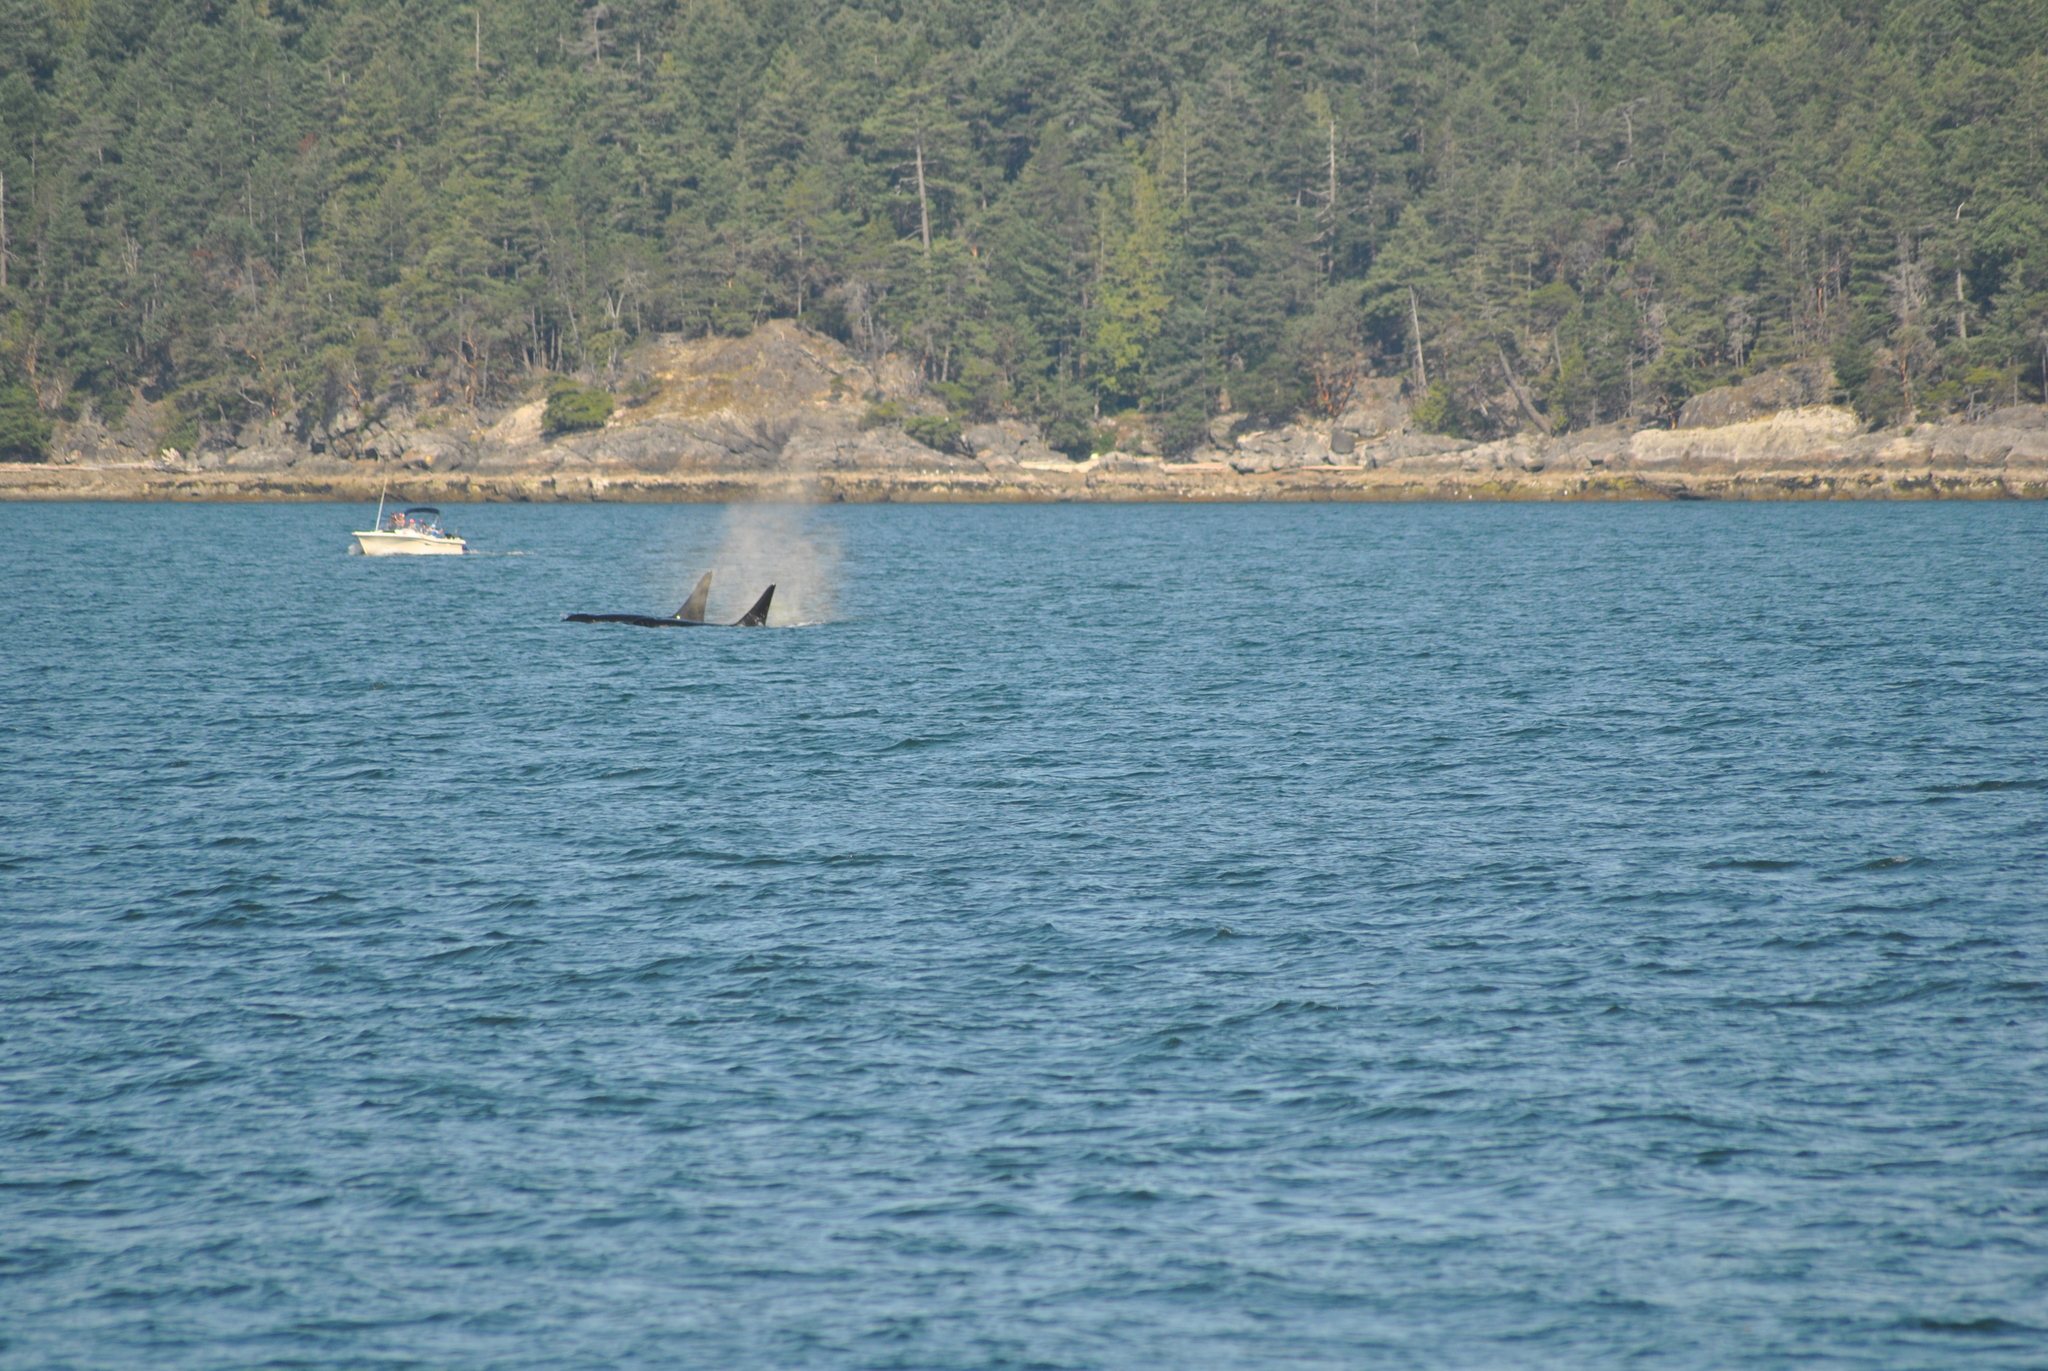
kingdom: Animalia
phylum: Chordata
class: Mammalia
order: Cetacea
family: Delphinidae
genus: Orcinus
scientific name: Orcinus orca
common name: Killer whale
